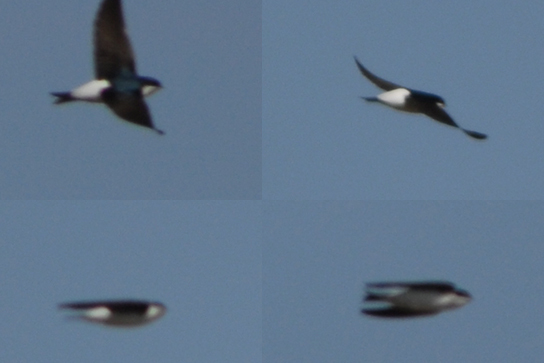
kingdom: Animalia
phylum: Chordata
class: Aves
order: Passeriformes
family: Hirundinidae
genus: Delichon
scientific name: Delichon urbicum
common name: Common house martin
